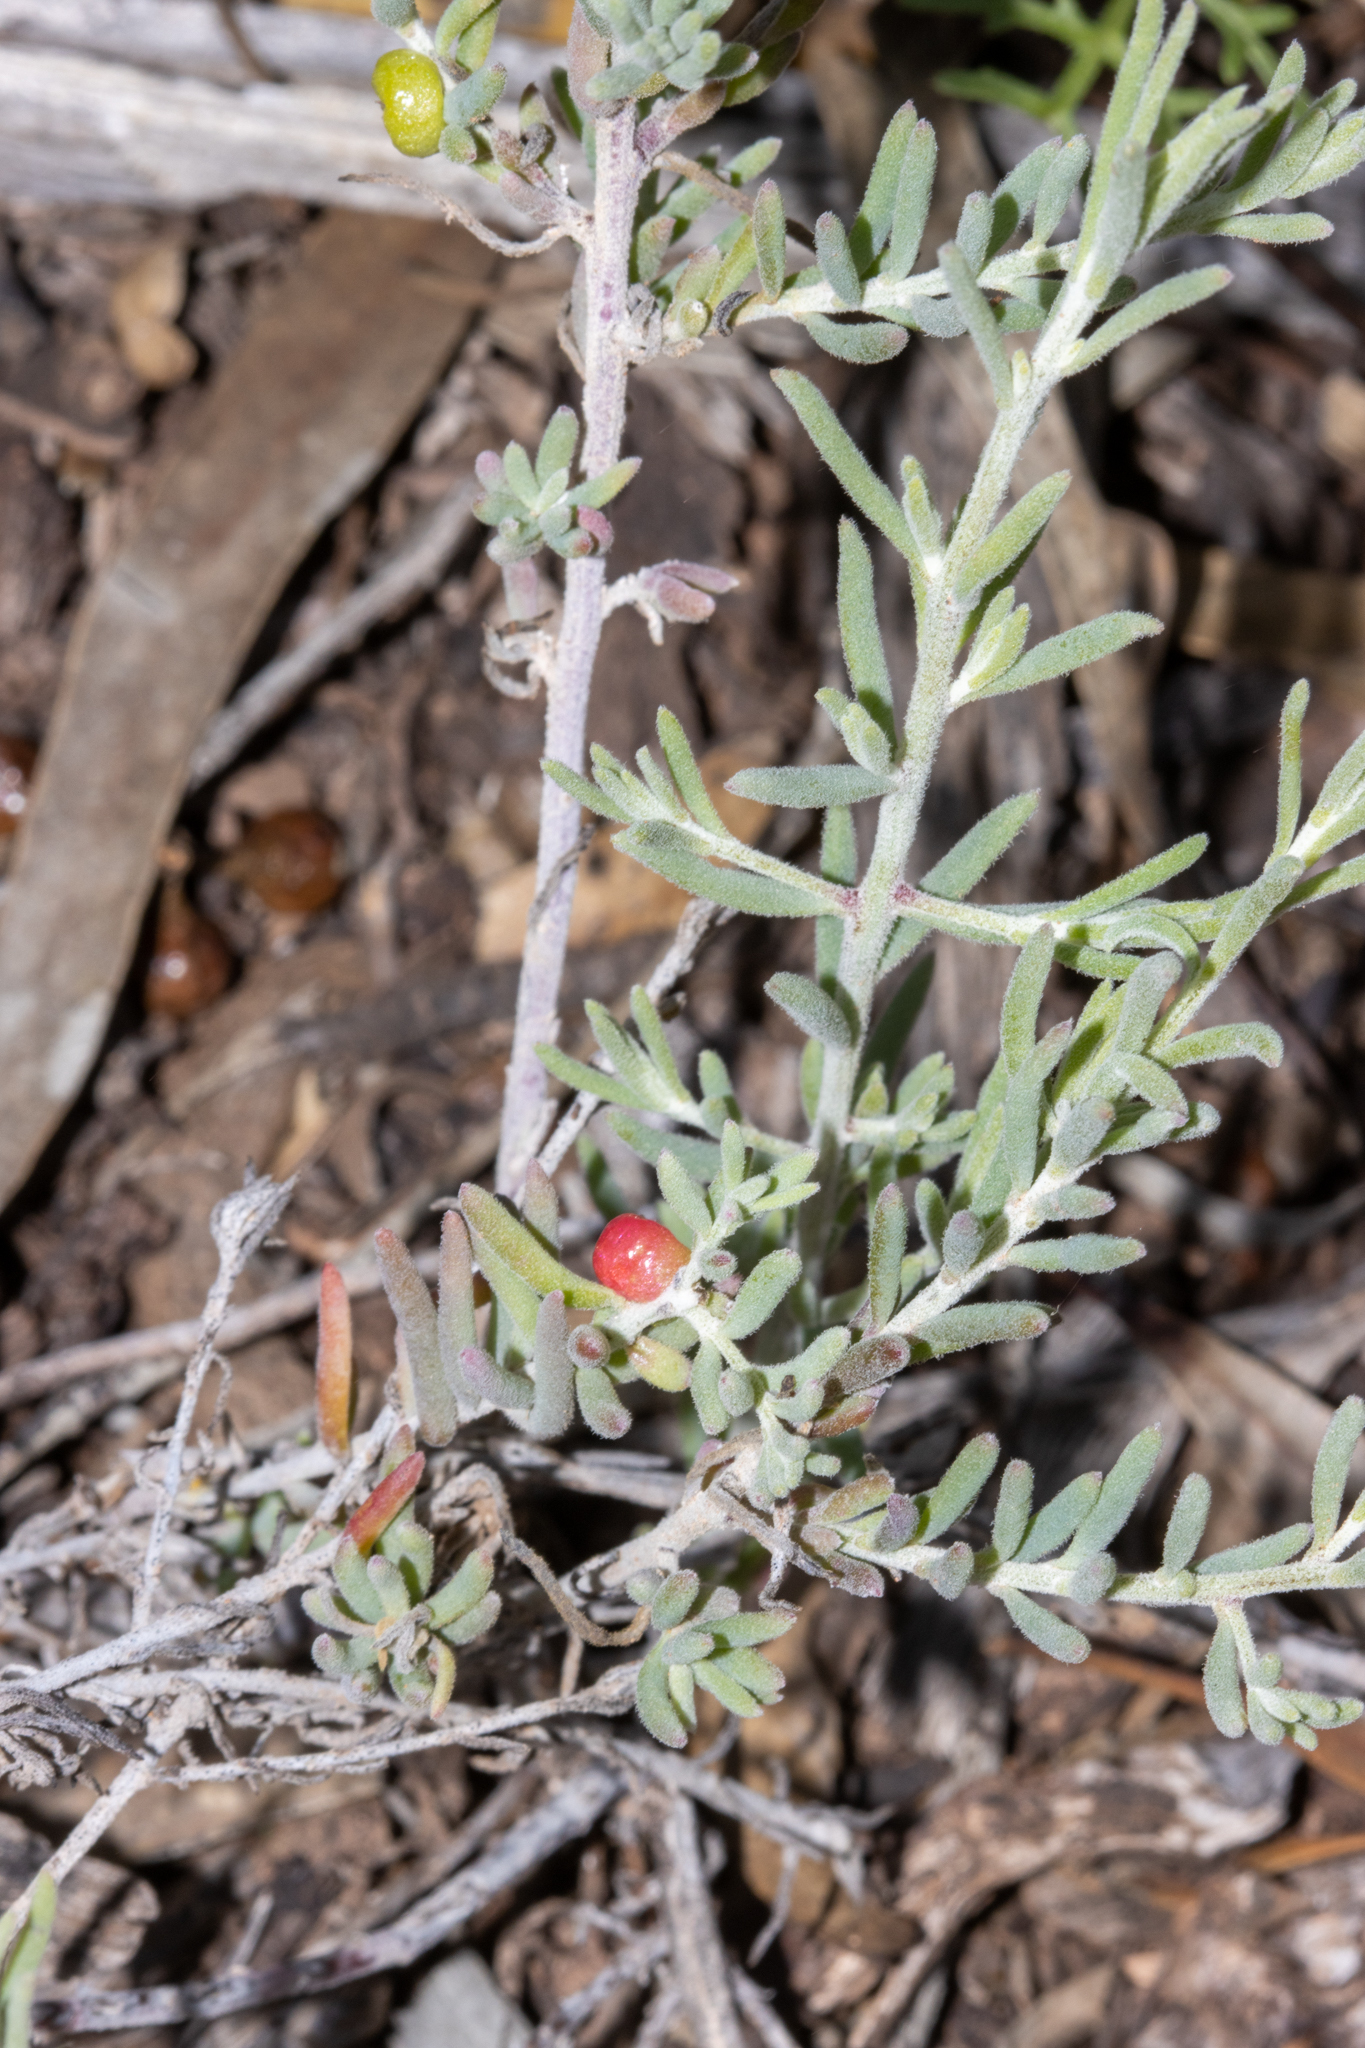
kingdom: Plantae
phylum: Tracheophyta
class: Magnoliopsida
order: Caryophyllales
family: Amaranthaceae
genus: Enchylaena
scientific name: Enchylaena tomentosa
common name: Ruby saltbush
